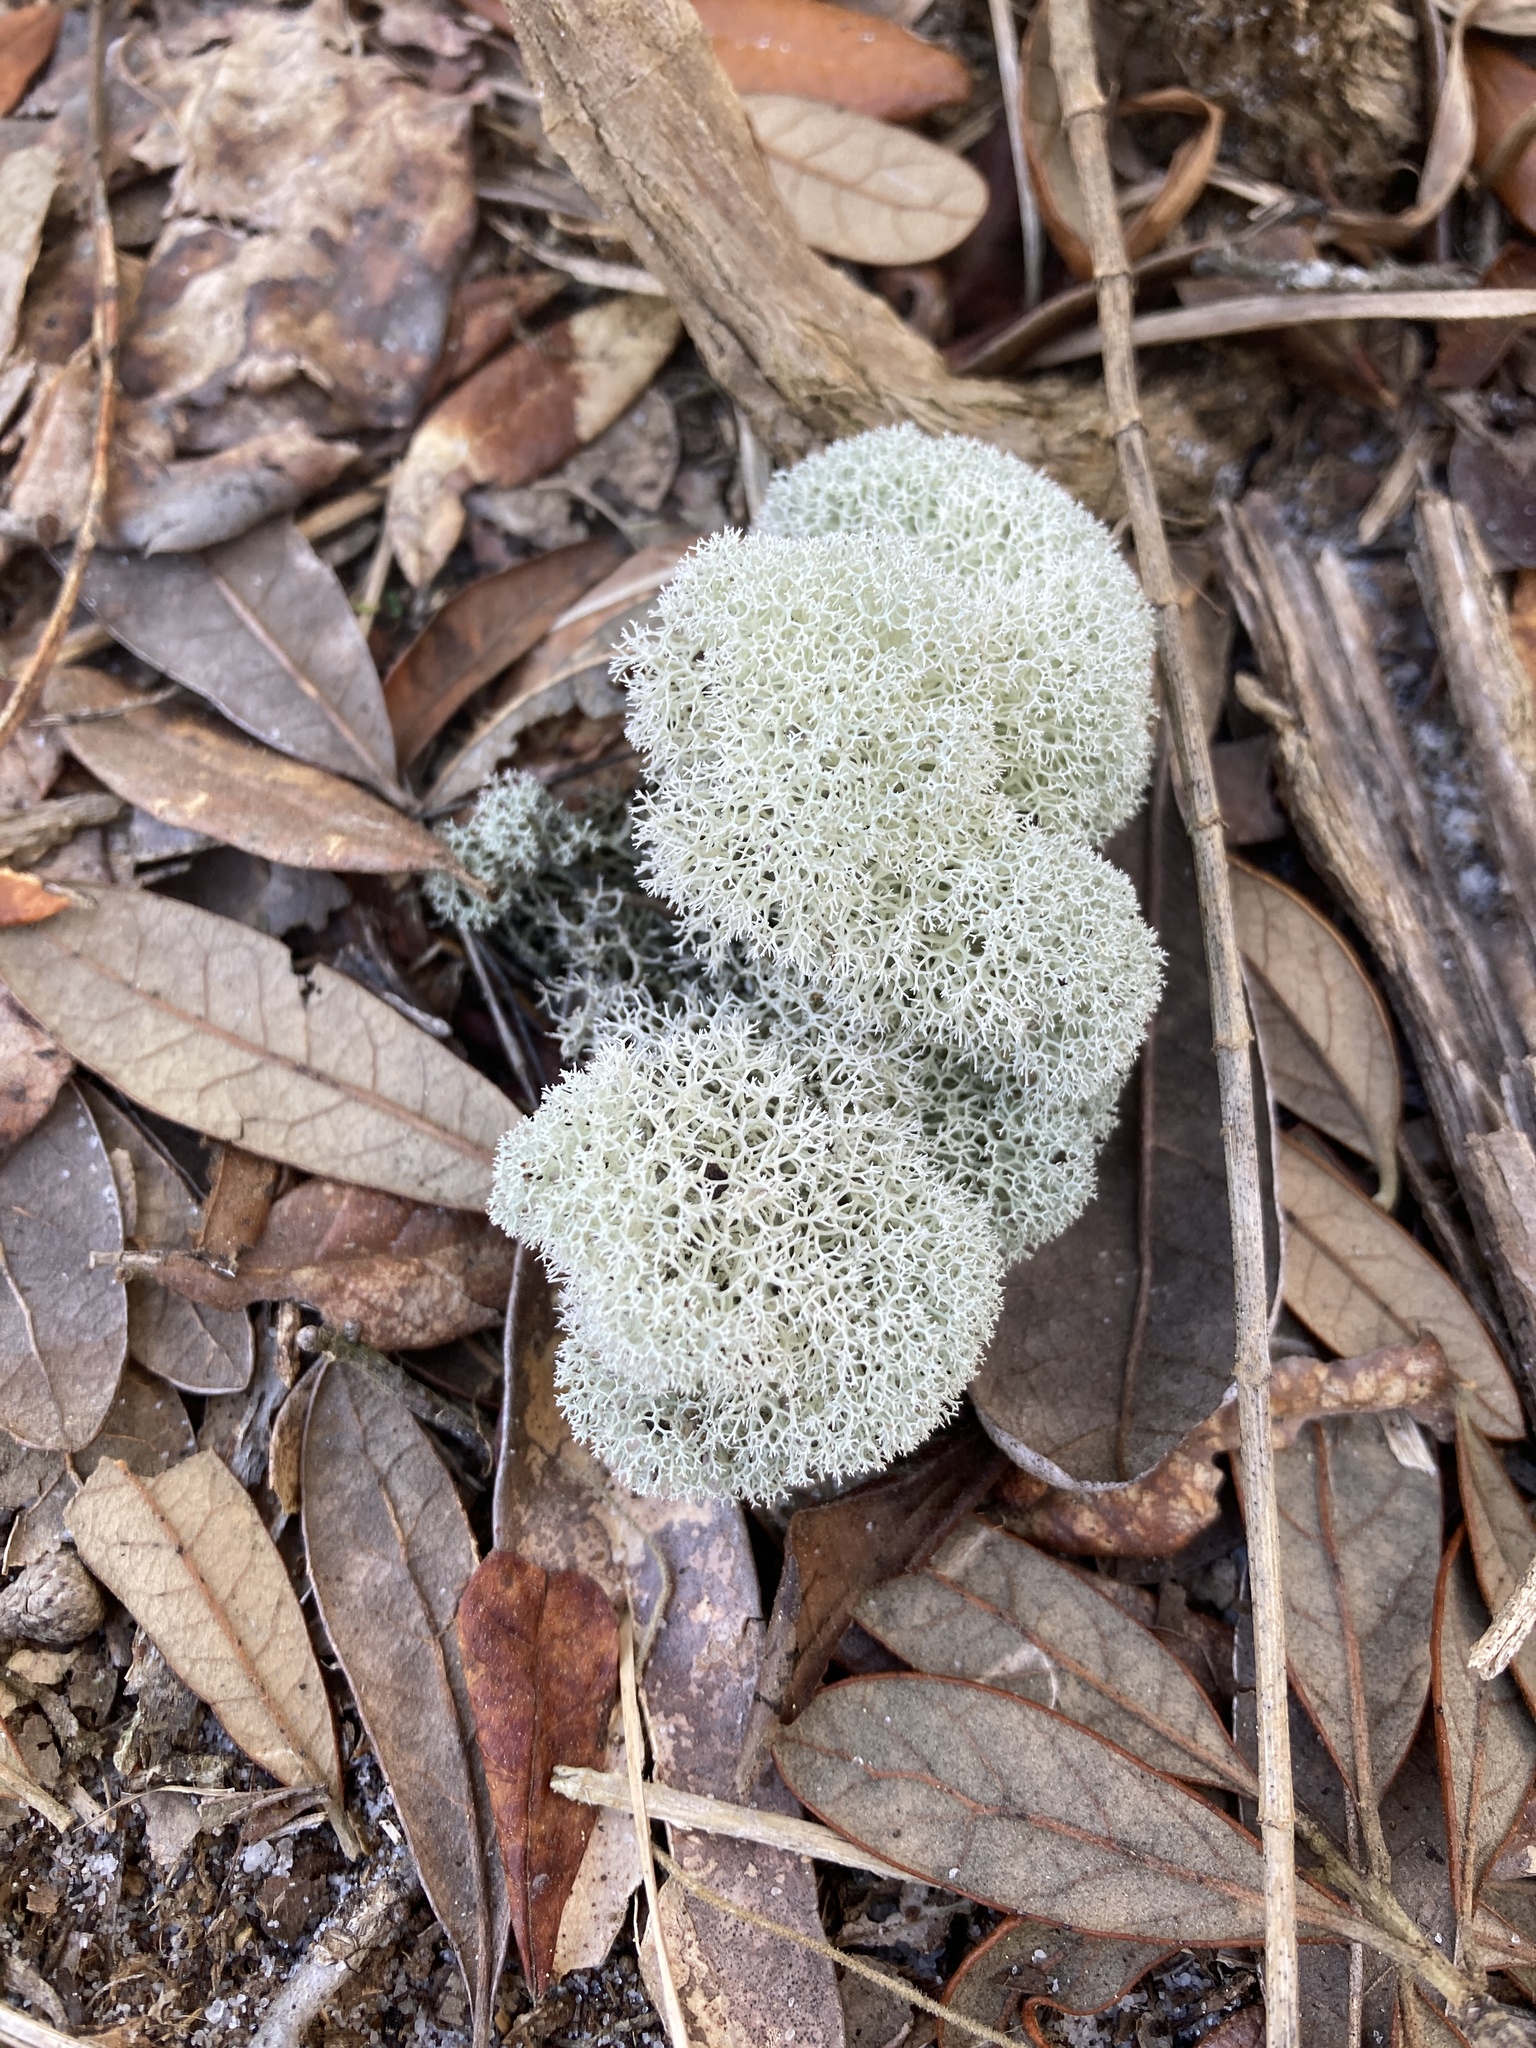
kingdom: Fungi
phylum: Ascomycota
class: Lecanoromycetes
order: Lecanorales
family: Cladoniaceae
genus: Cladonia
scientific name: Cladonia evansii
